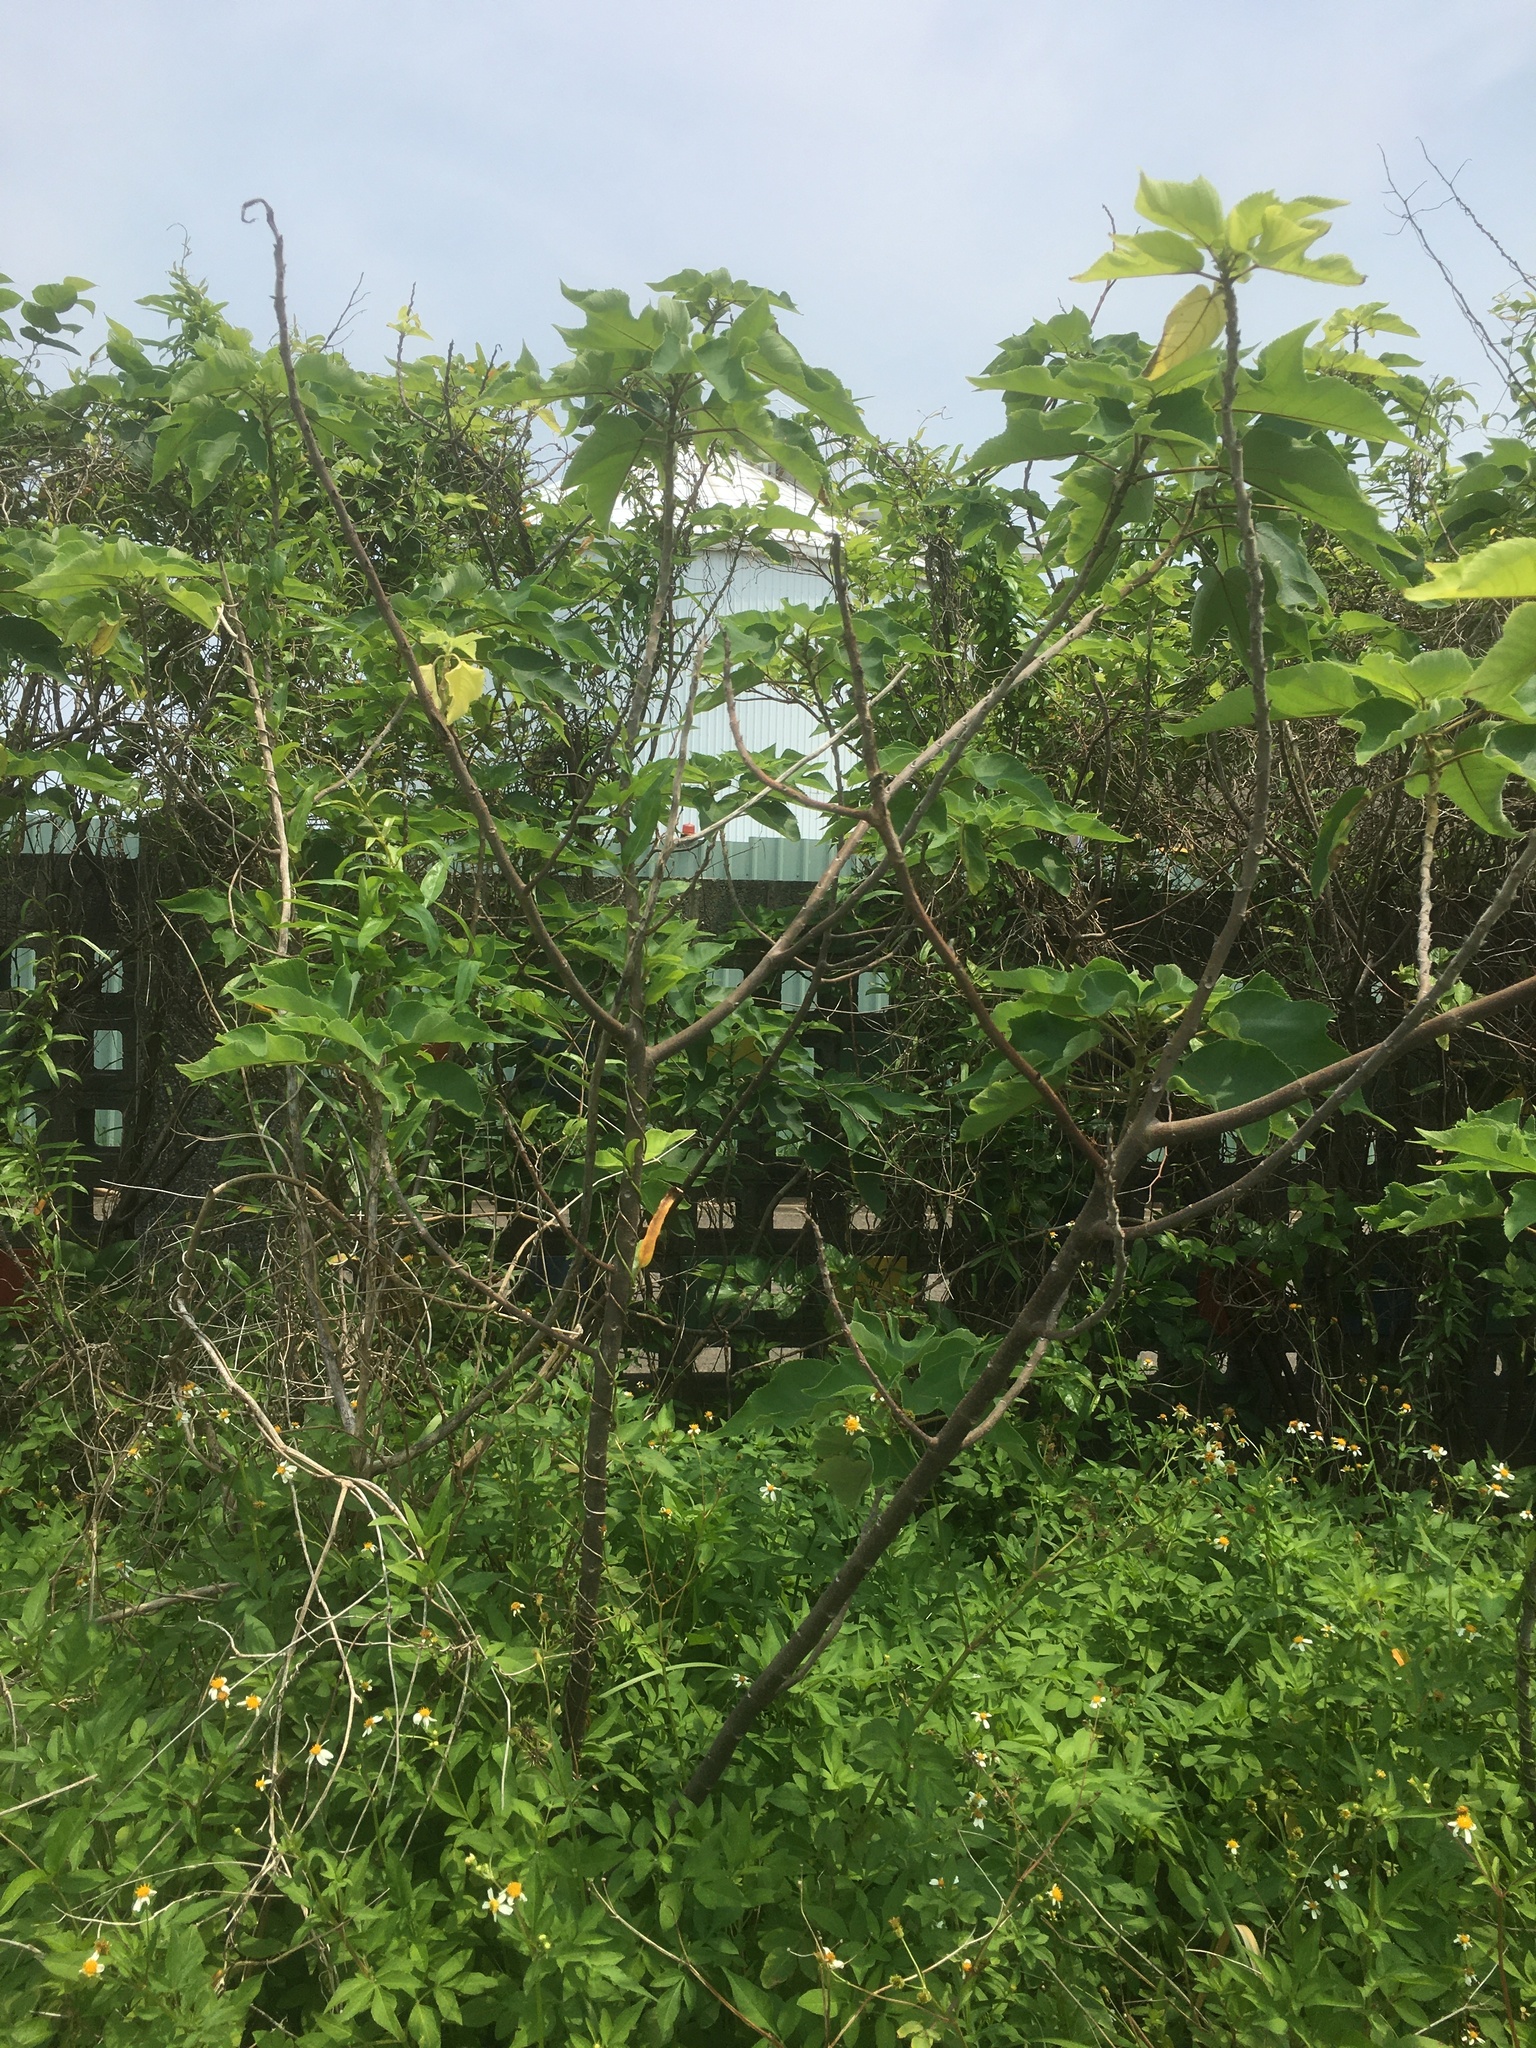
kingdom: Plantae
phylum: Tracheophyta
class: Magnoliopsida
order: Rosales
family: Moraceae
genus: Broussonetia
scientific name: Broussonetia papyrifera
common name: Paper mulberry
